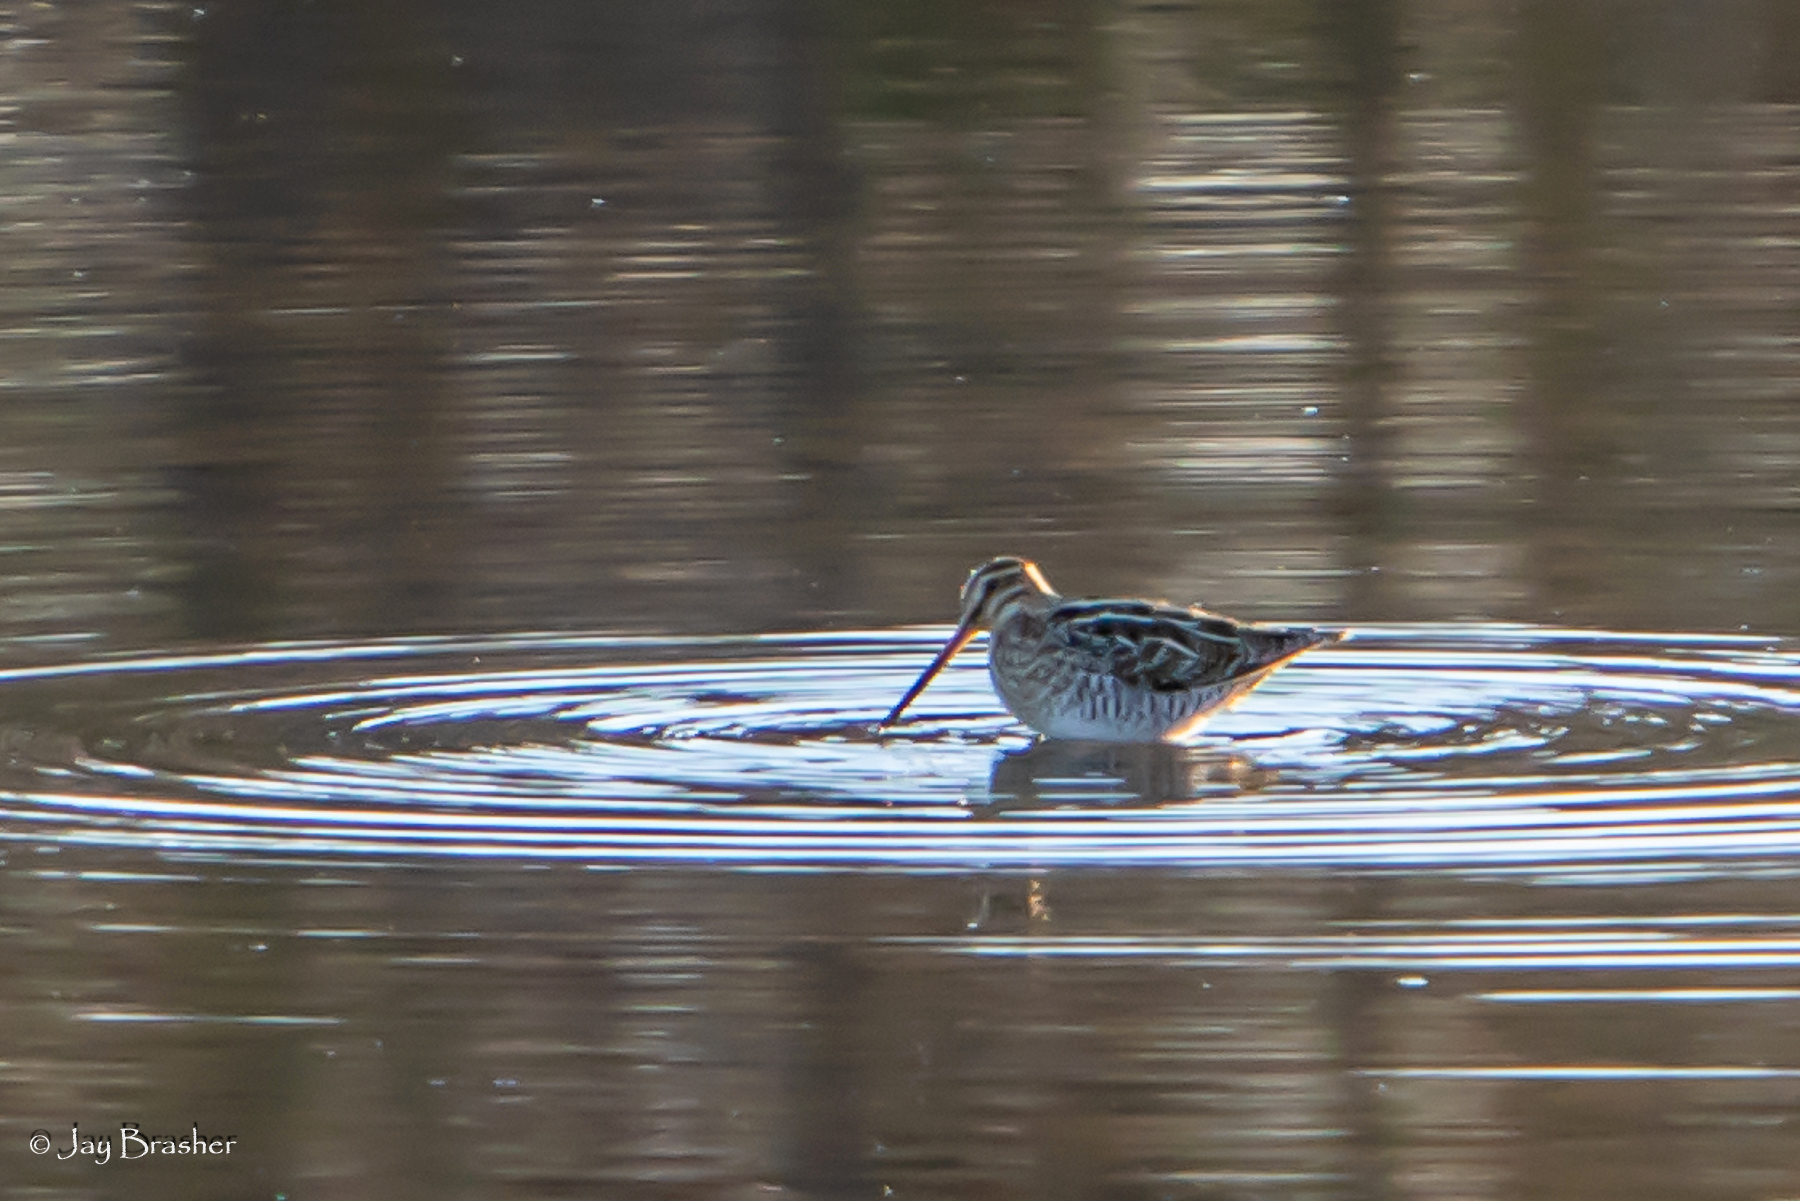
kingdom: Animalia
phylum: Chordata
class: Aves
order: Charadriiformes
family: Scolopacidae
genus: Gallinago
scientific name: Gallinago delicata
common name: Wilson's snipe
